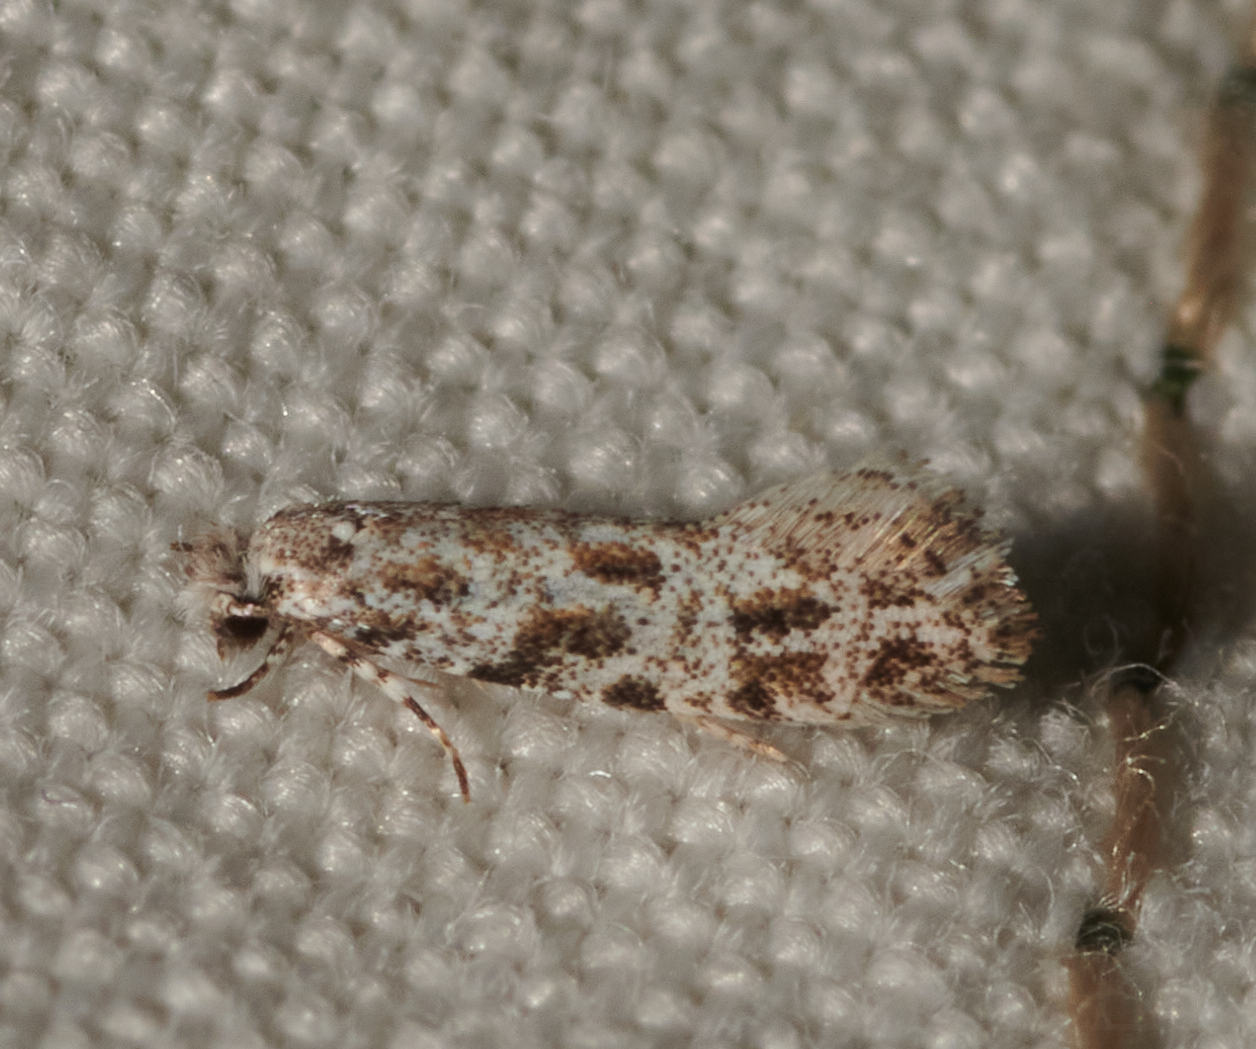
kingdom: Animalia
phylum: Arthropoda
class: Insecta
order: Lepidoptera
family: Meessiidae
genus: Diachorisia
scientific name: Diachorisia velatella
